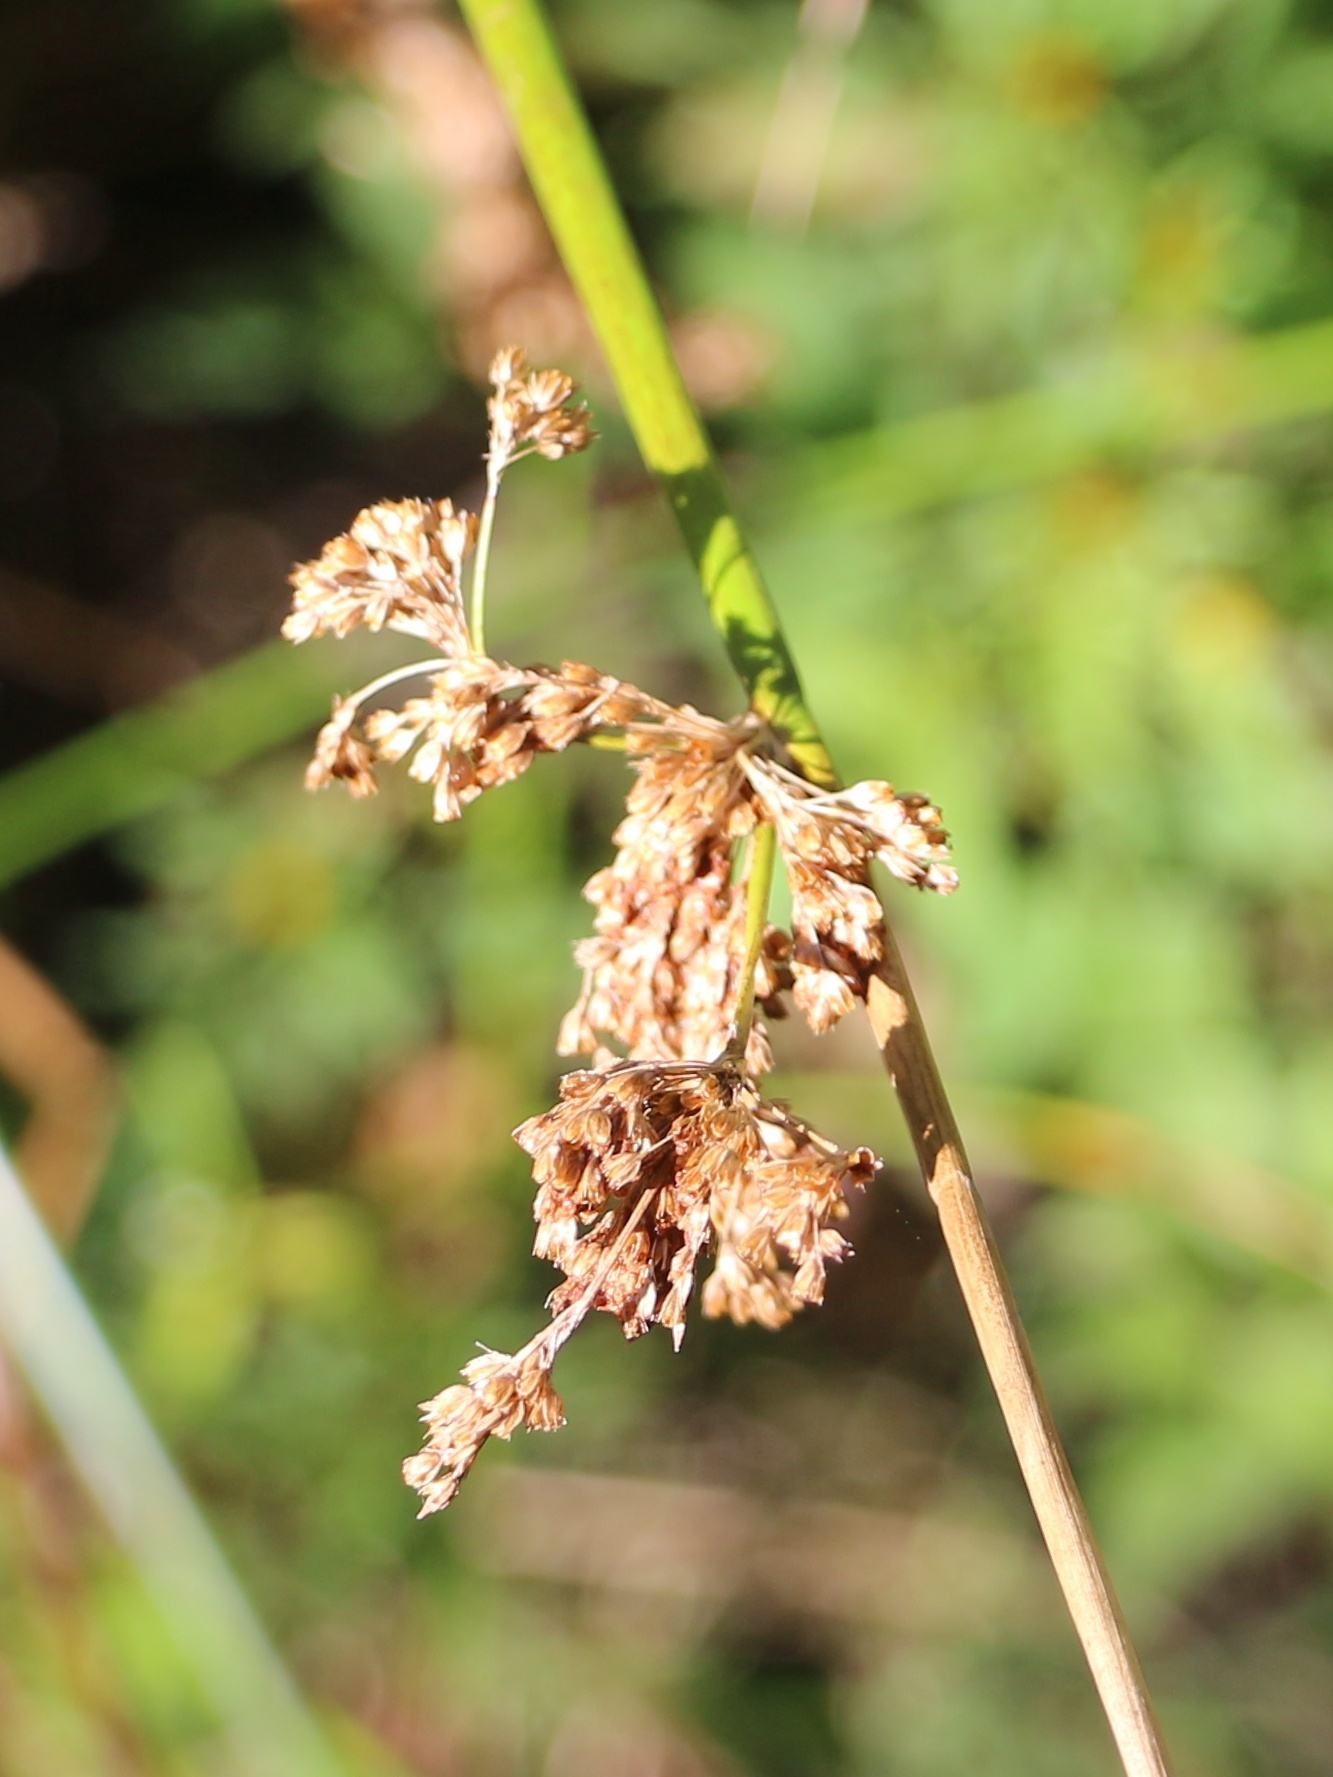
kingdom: Plantae
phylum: Tracheophyta
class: Liliopsida
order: Poales
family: Juncaceae
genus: Juncus
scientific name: Juncus effusus
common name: Soft rush
